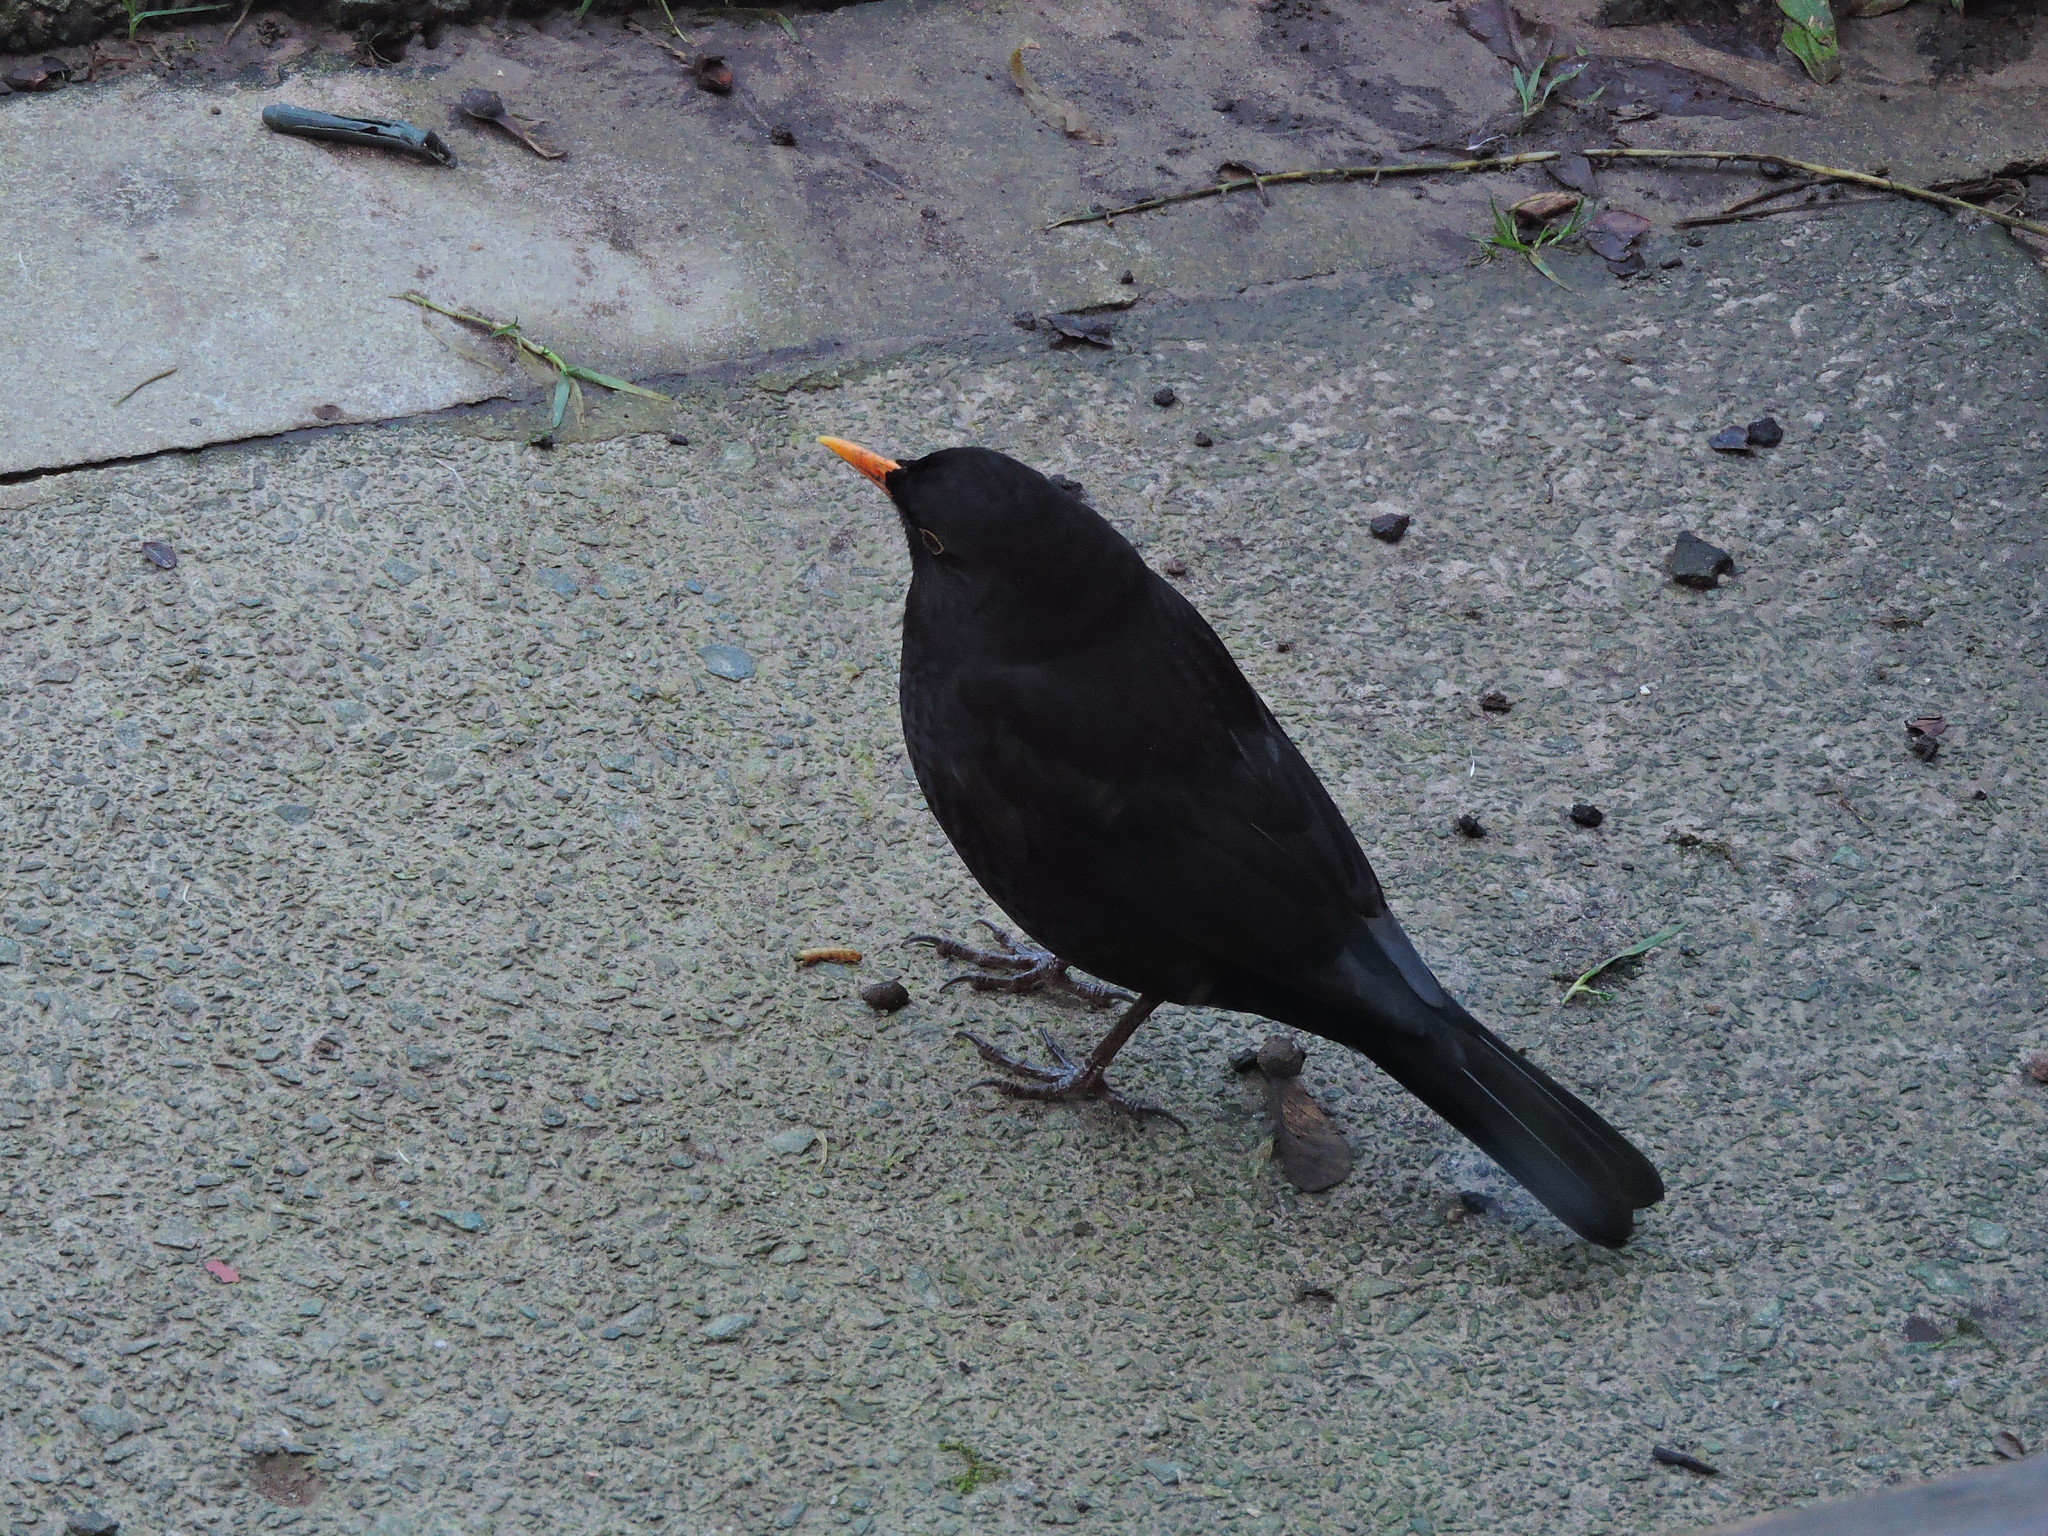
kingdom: Animalia
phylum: Chordata
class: Aves
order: Passeriformes
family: Turdidae
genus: Turdus
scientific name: Turdus merula
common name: Common blackbird
